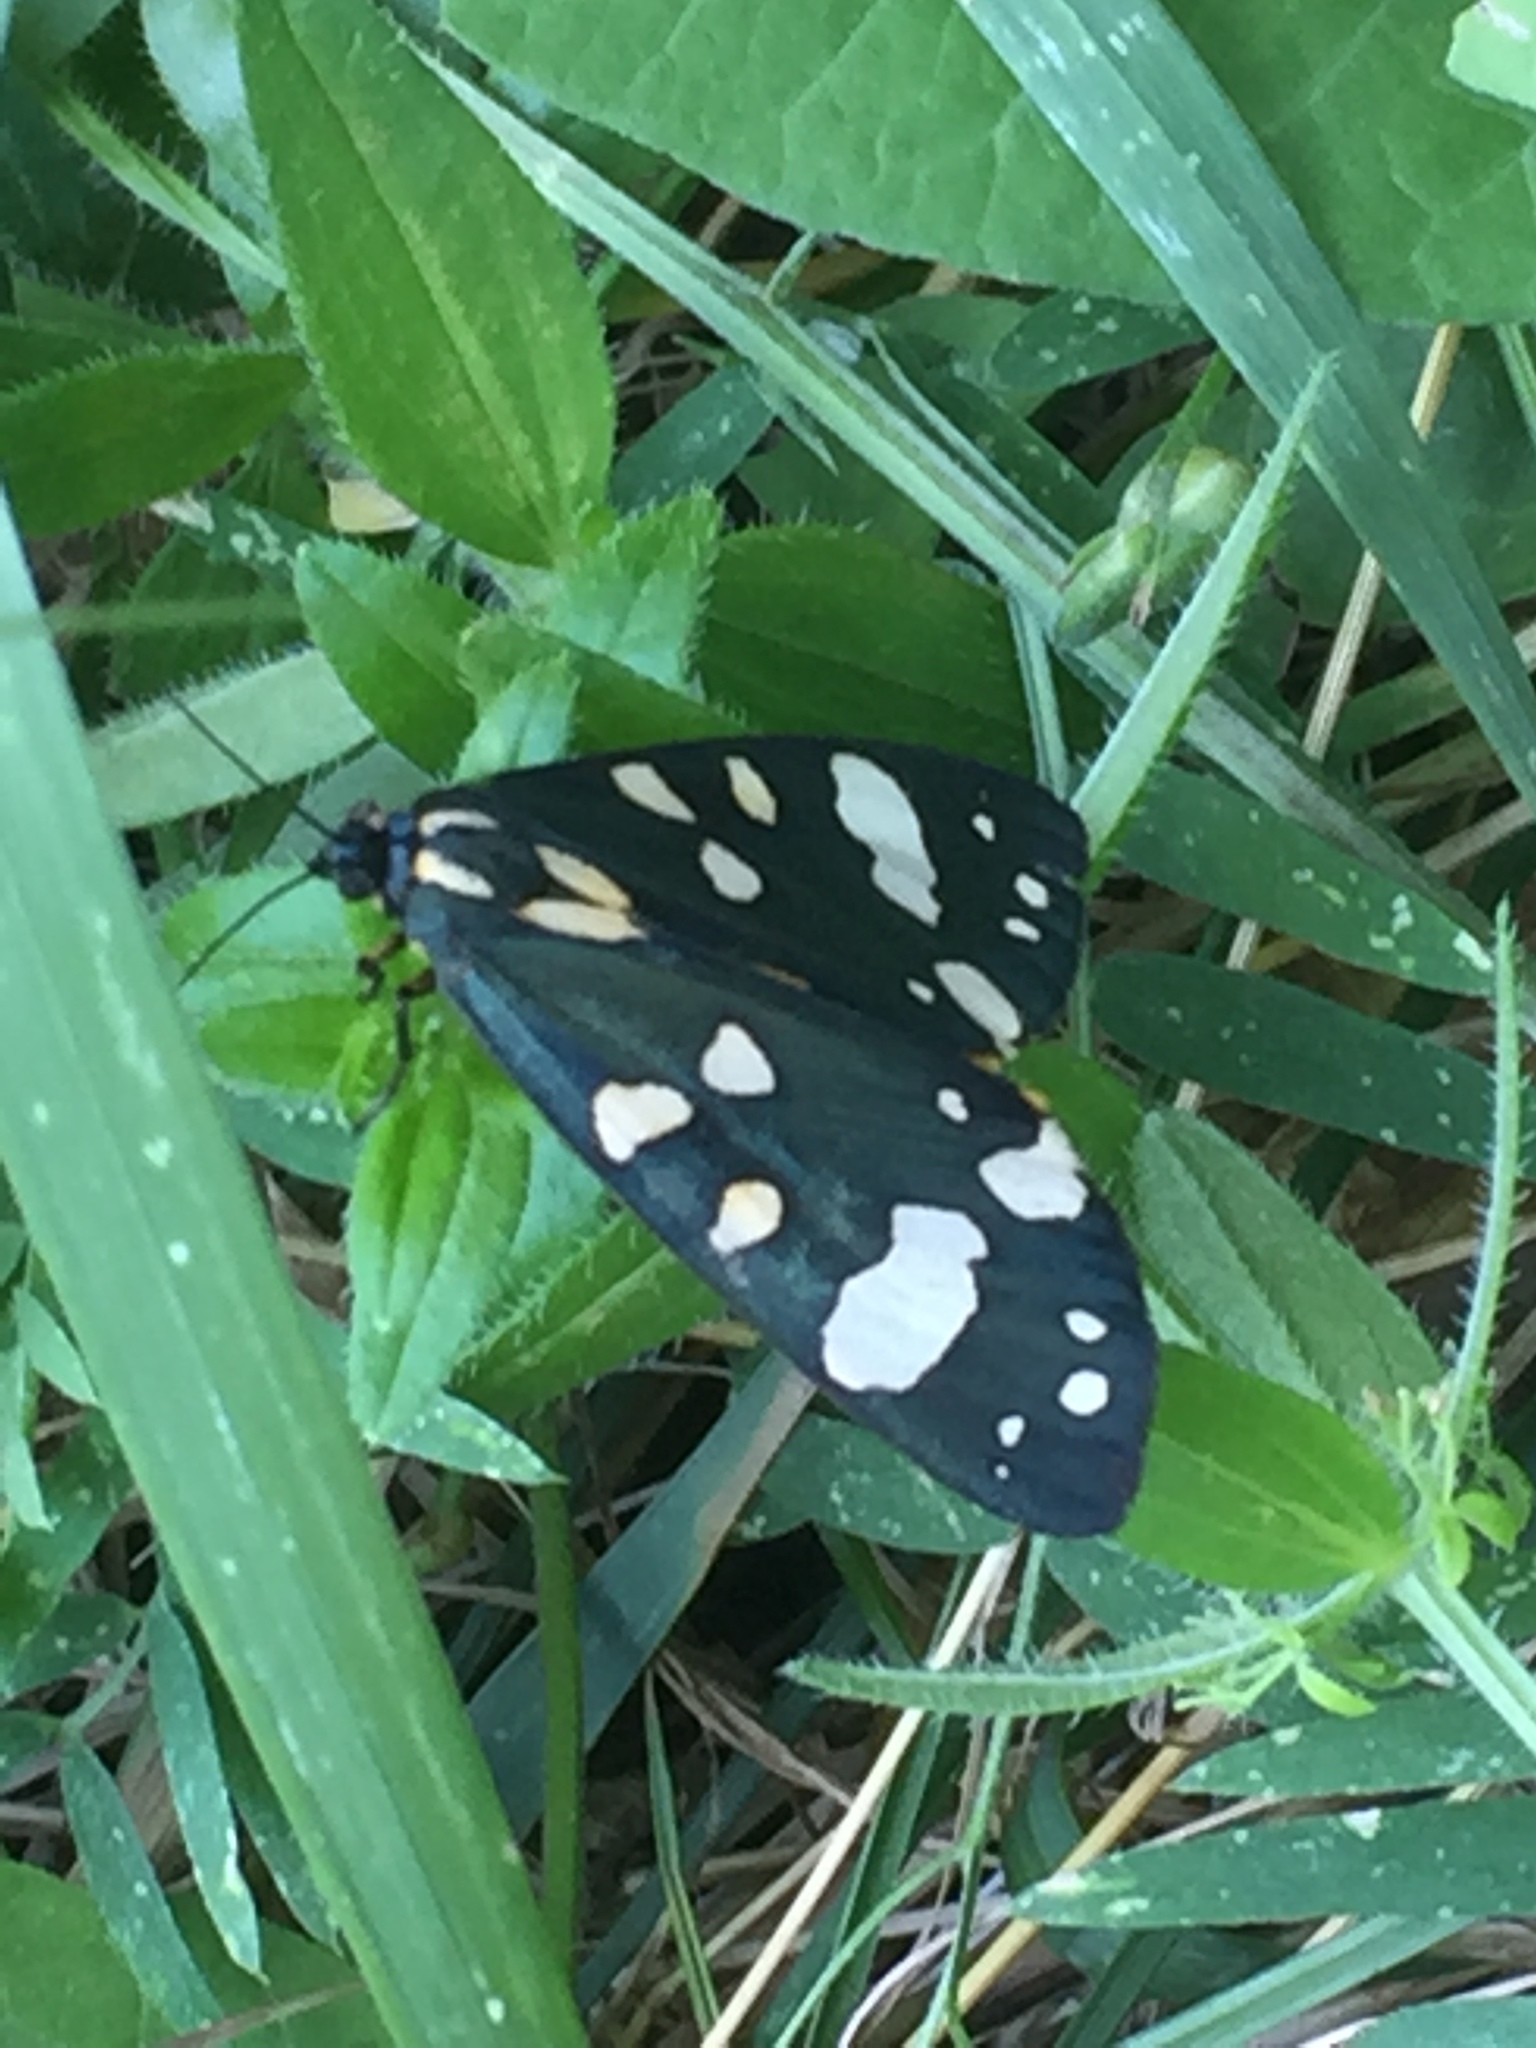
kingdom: Animalia
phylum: Arthropoda
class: Insecta
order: Lepidoptera
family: Erebidae
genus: Callimorpha
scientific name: Callimorpha dominula
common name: Scarlet tiger
